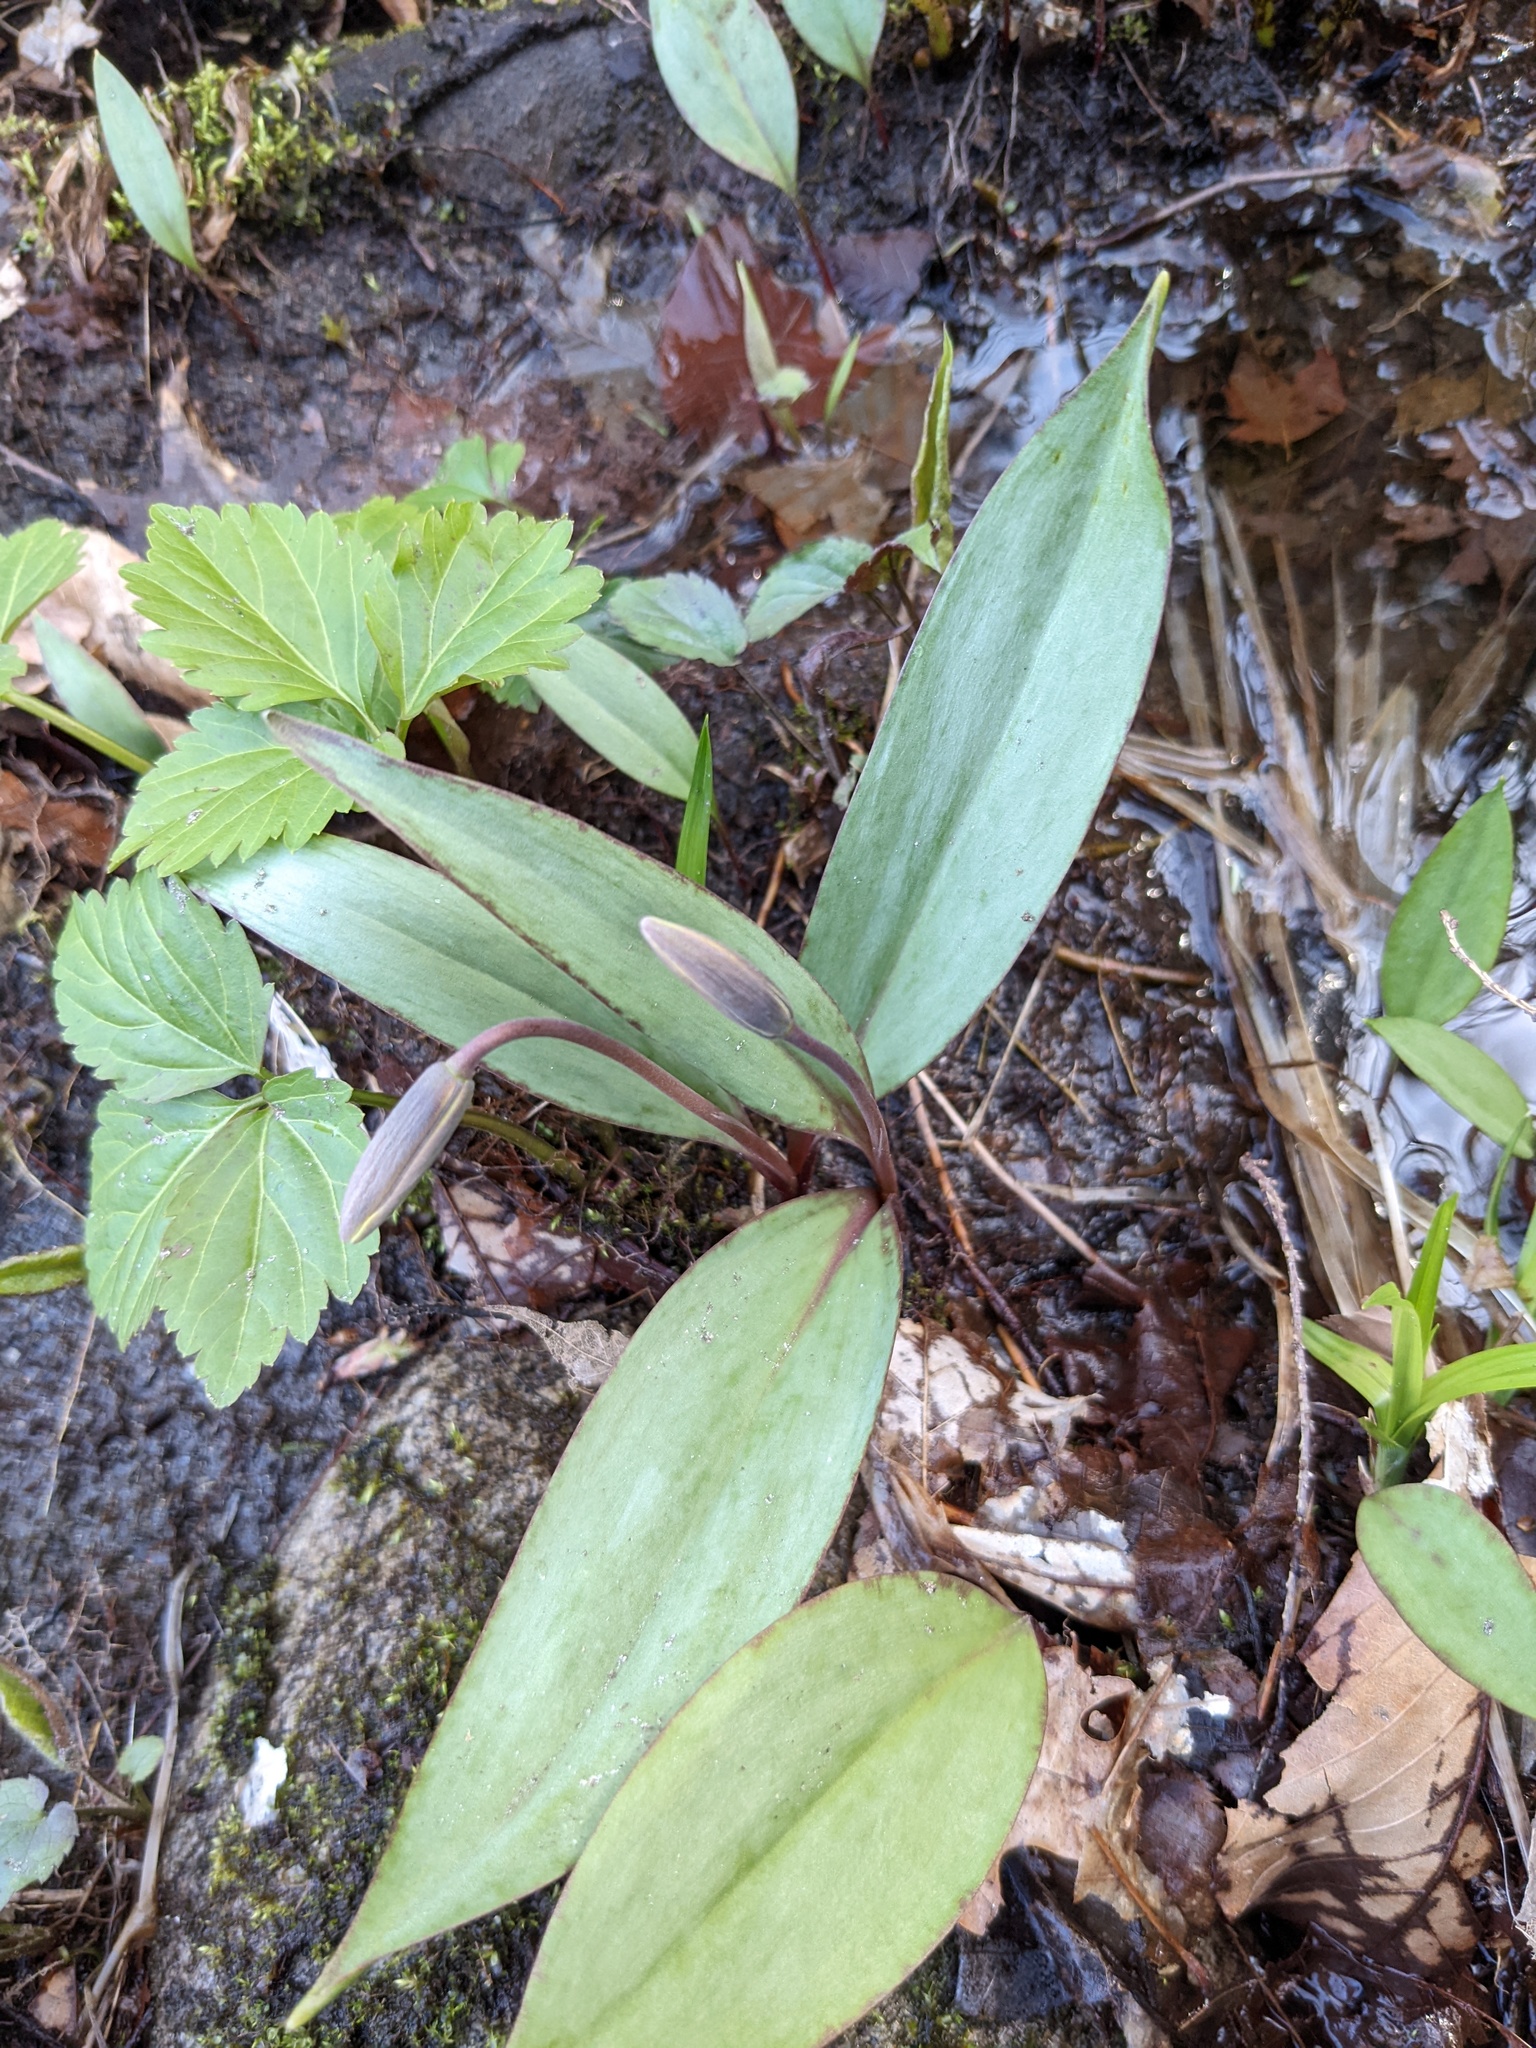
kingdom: Plantae
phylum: Tracheophyta
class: Liliopsida
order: Liliales
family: Liliaceae
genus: Erythronium
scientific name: Erythronium americanum
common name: Yellow adder's-tongue
